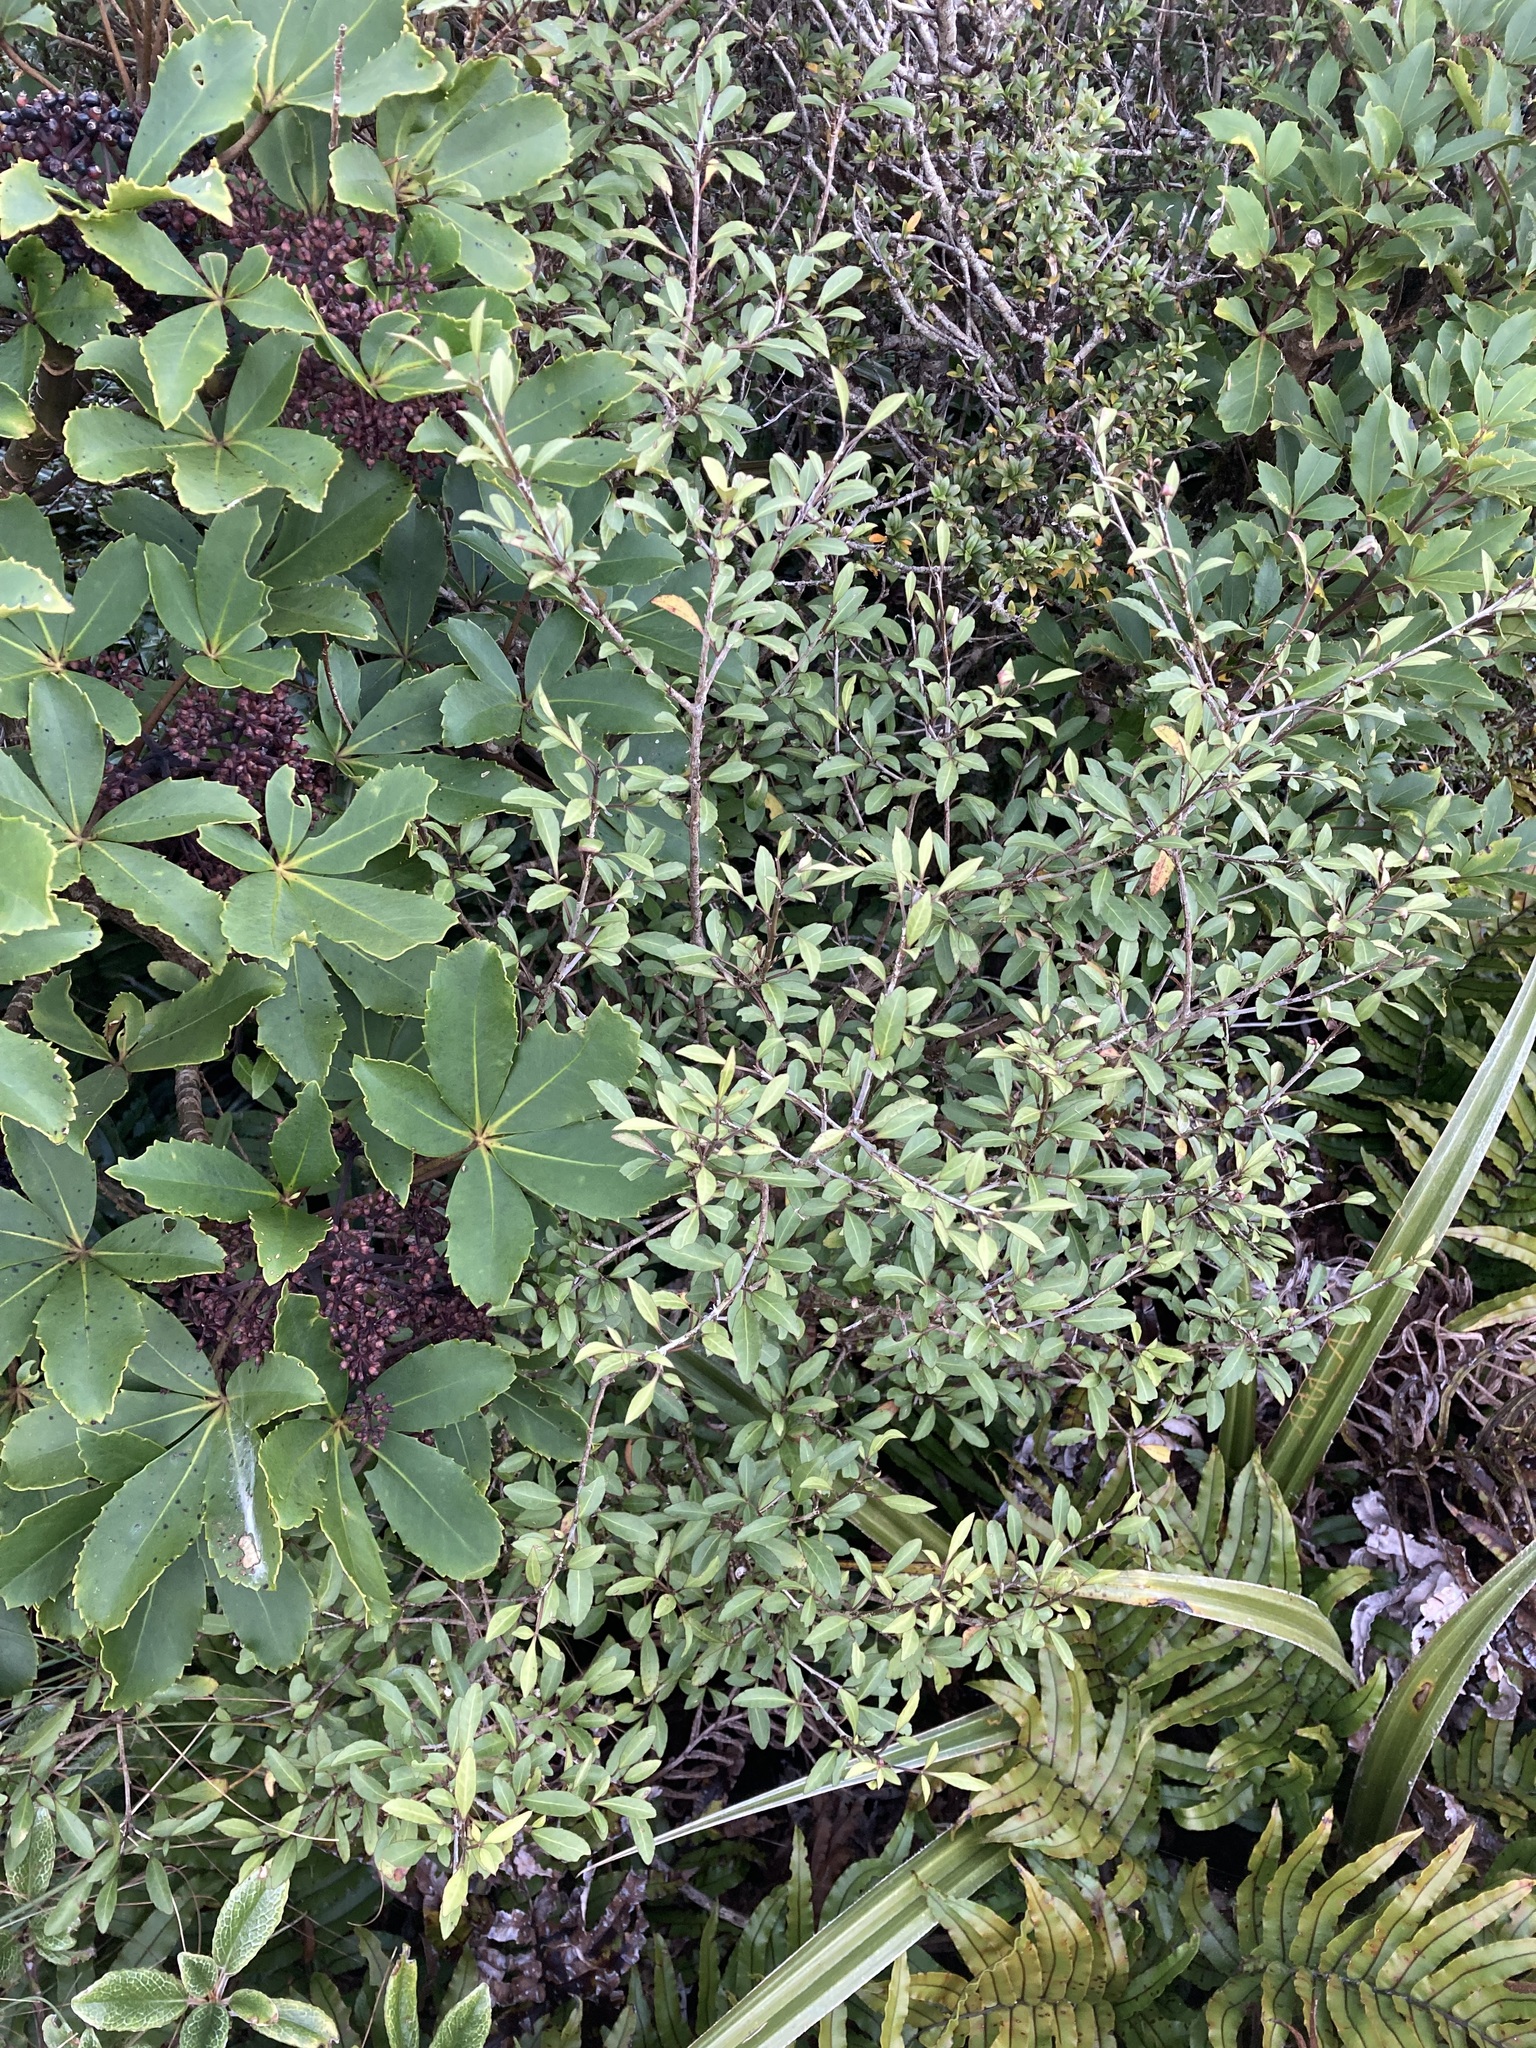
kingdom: Plantae
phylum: Tracheophyta
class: Magnoliopsida
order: Apiales
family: Araliaceae
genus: Raukaua
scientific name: Raukaua parvus
